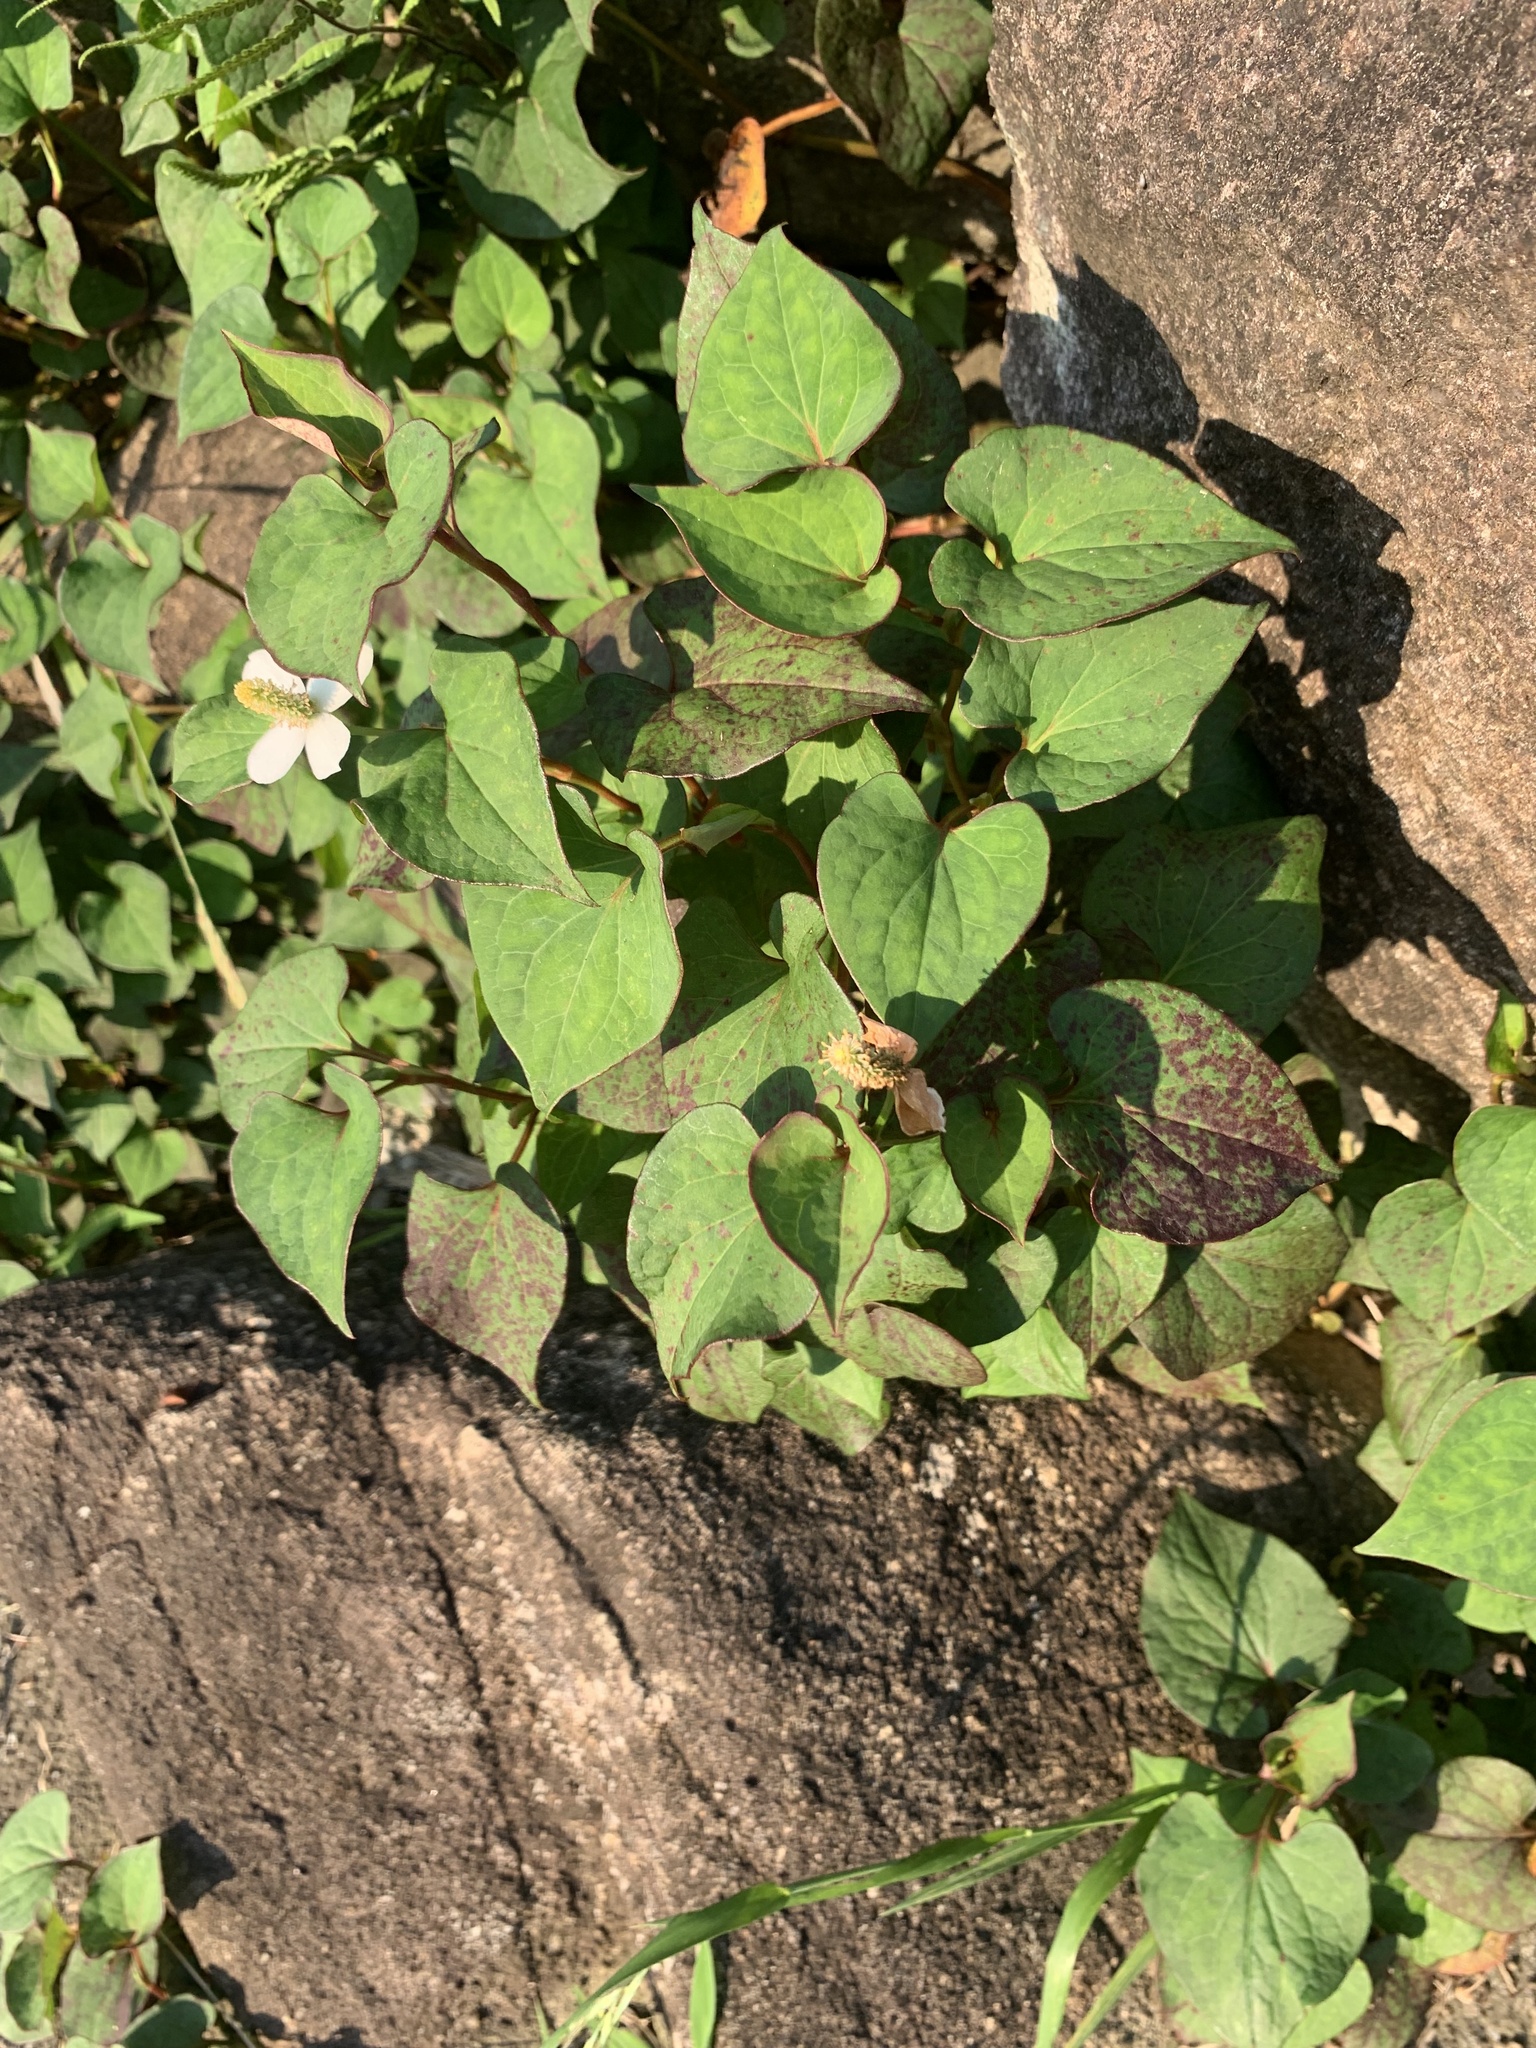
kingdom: Plantae
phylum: Tracheophyta
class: Magnoliopsida
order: Piperales
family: Saururaceae
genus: Houttuynia
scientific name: Houttuynia cordata
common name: Chameleon
